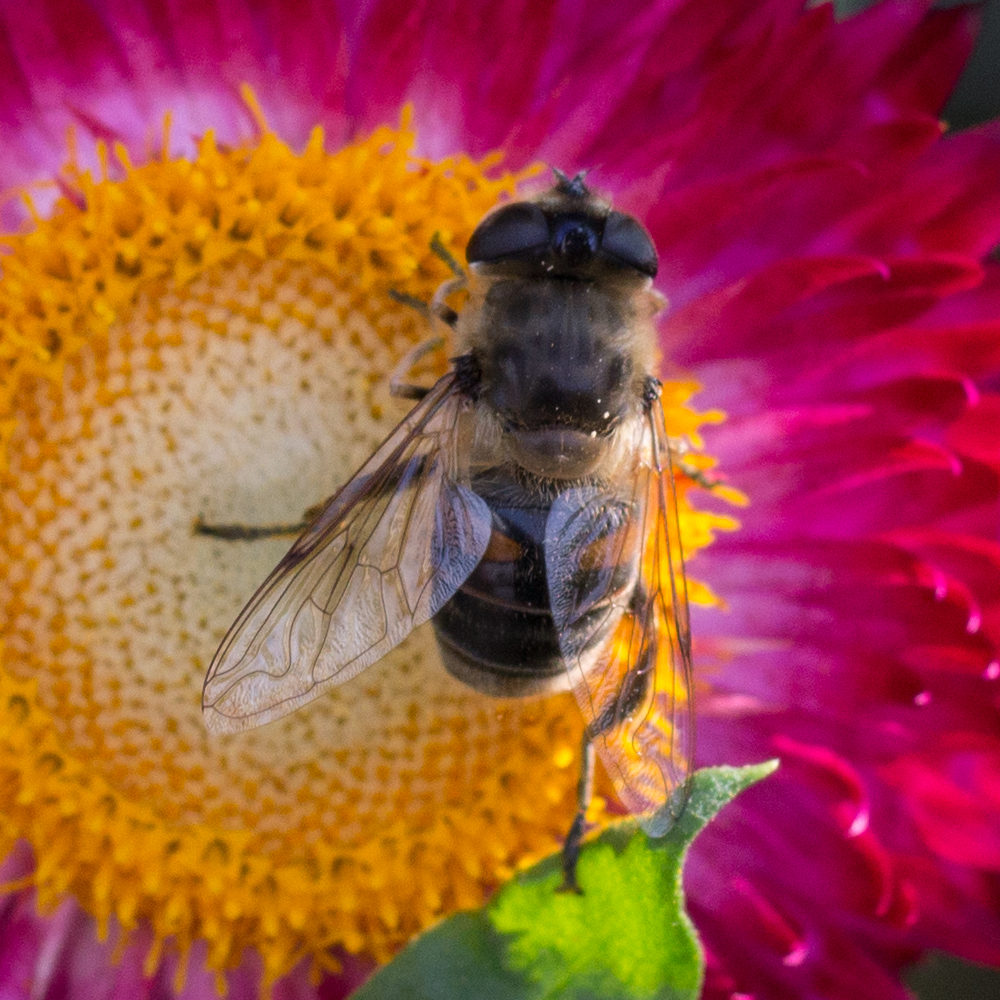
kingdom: Animalia
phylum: Arthropoda
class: Insecta
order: Diptera
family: Syrphidae
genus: Eristalis
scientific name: Eristalis tenax
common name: Drone fly
